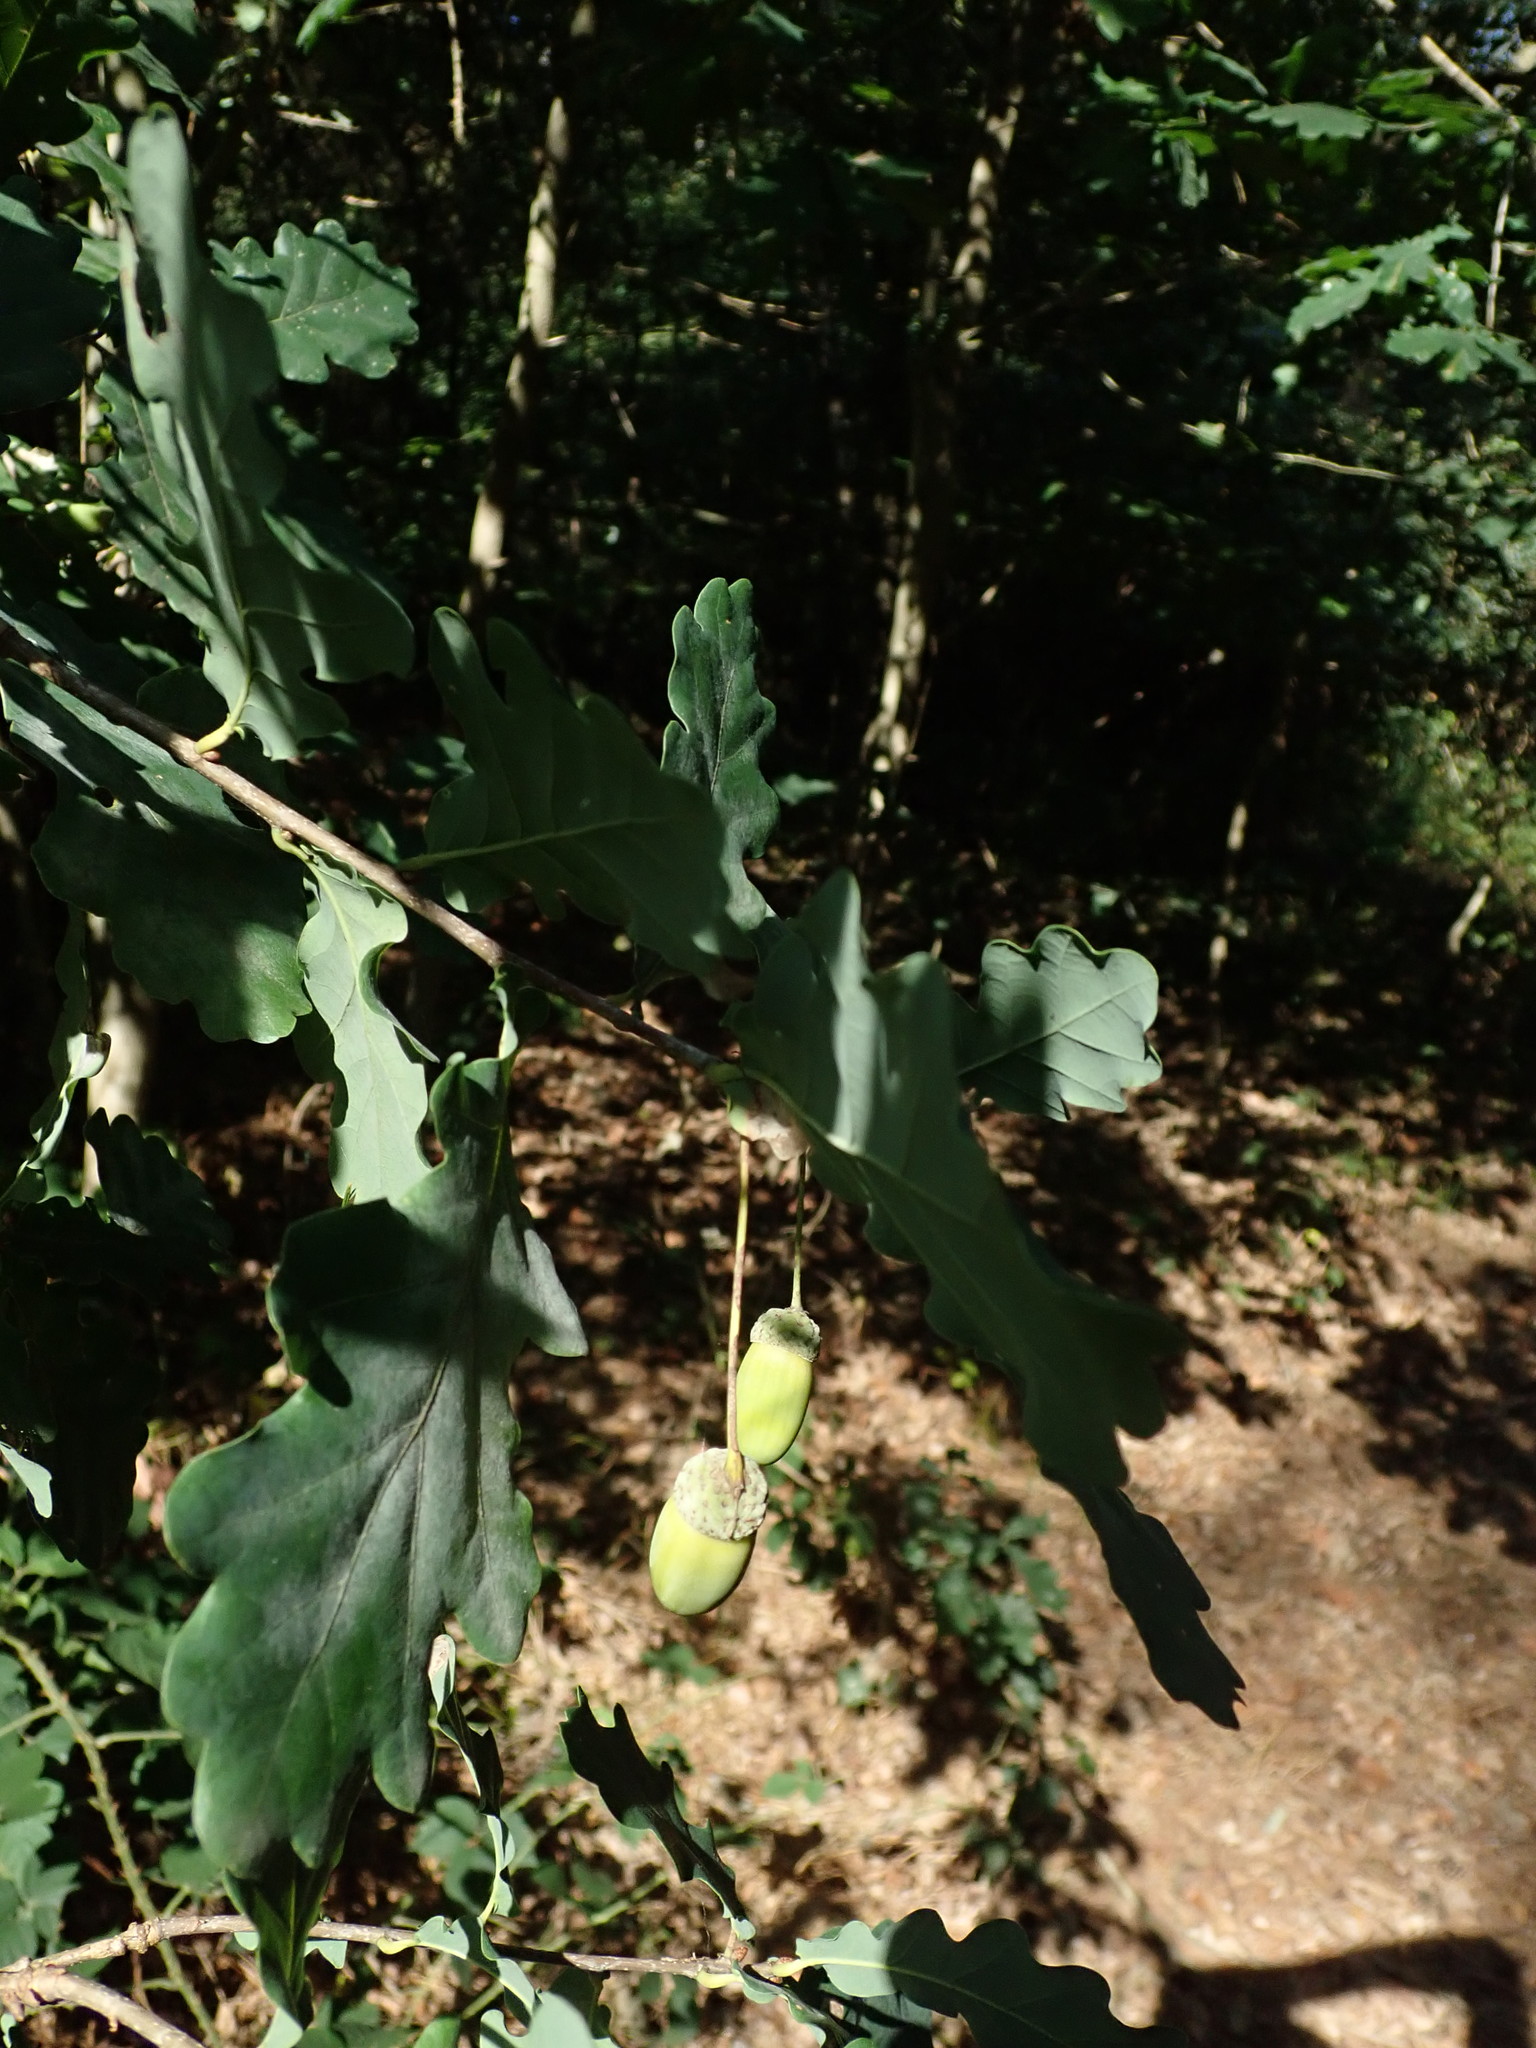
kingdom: Plantae
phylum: Tracheophyta
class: Magnoliopsida
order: Fagales
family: Fagaceae
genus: Quercus
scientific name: Quercus robur
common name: Pedunculate oak
